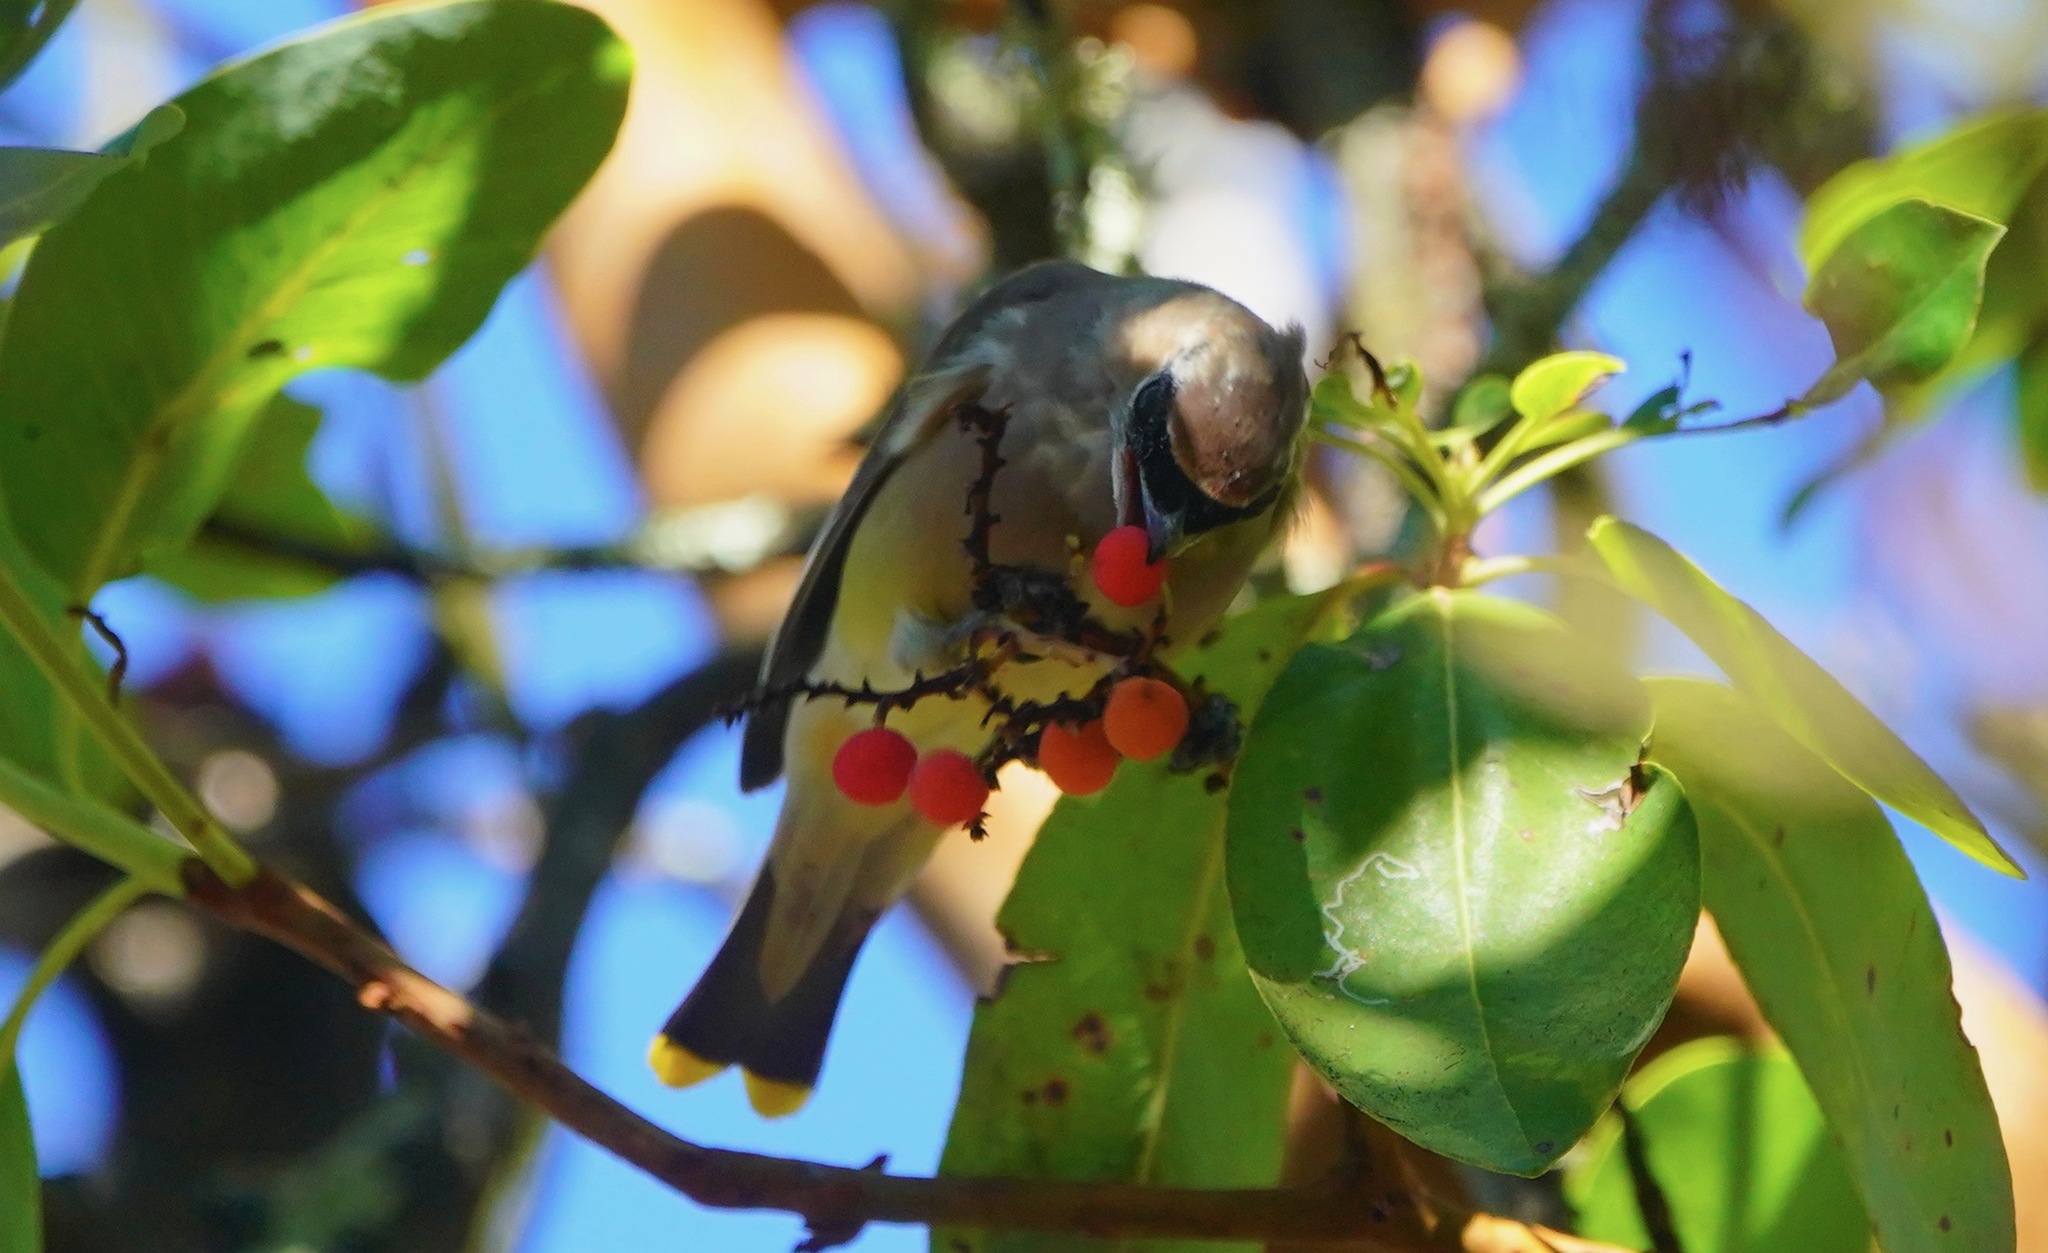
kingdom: Animalia
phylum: Chordata
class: Aves
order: Passeriformes
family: Bombycillidae
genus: Bombycilla
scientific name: Bombycilla cedrorum
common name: Cedar waxwing
